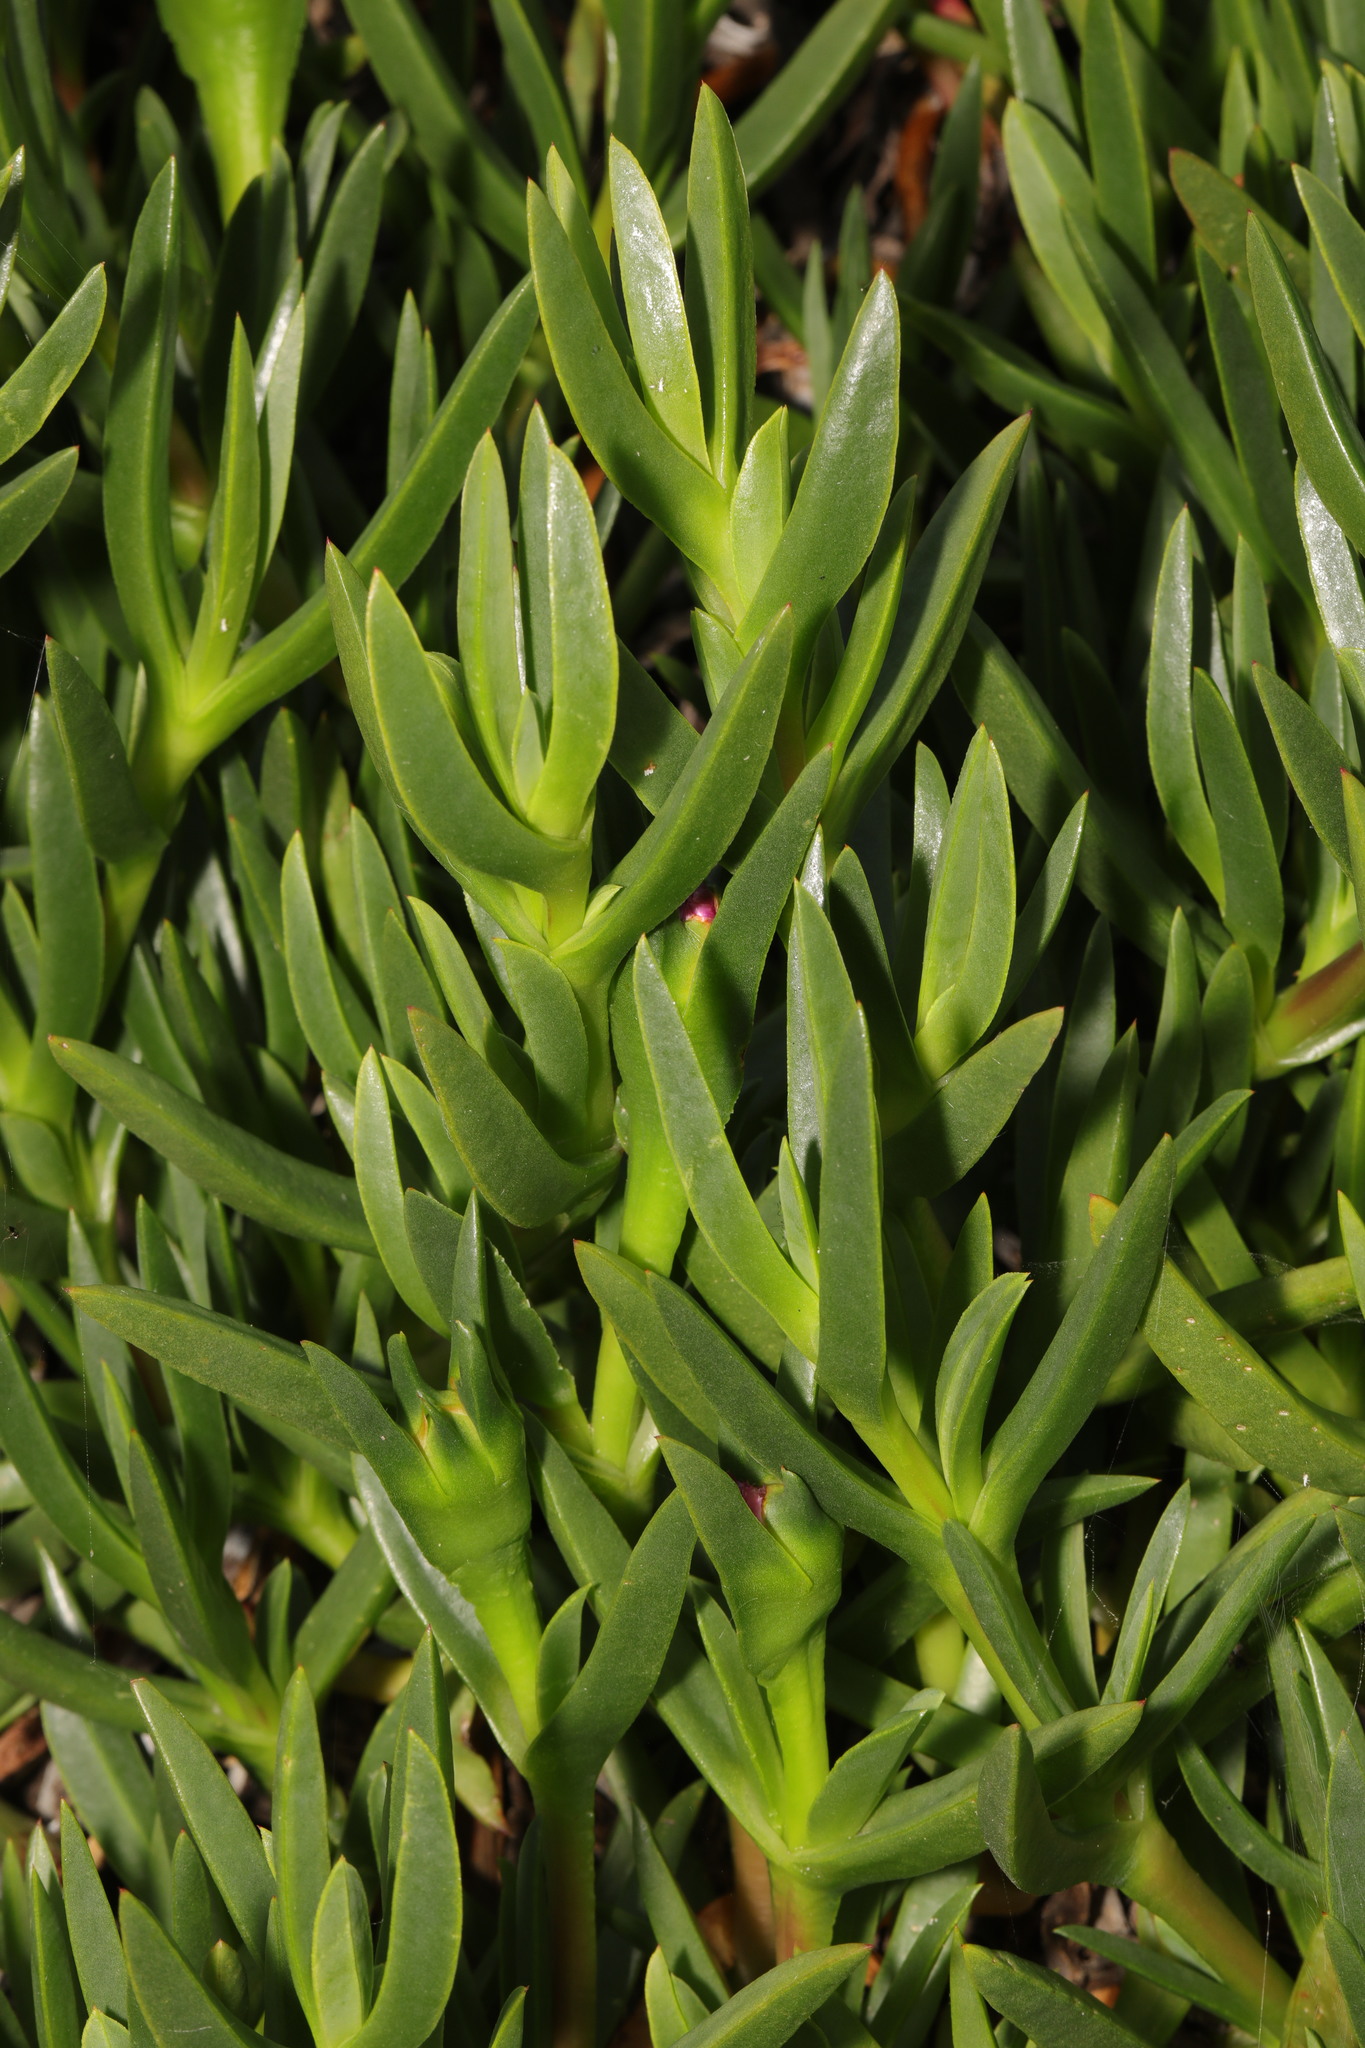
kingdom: Plantae
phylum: Tracheophyta
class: Magnoliopsida
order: Caryophyllales
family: Aizoaceae
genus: Carpobrotus
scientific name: Carpobrotus edulis
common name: Hottentot-fig
